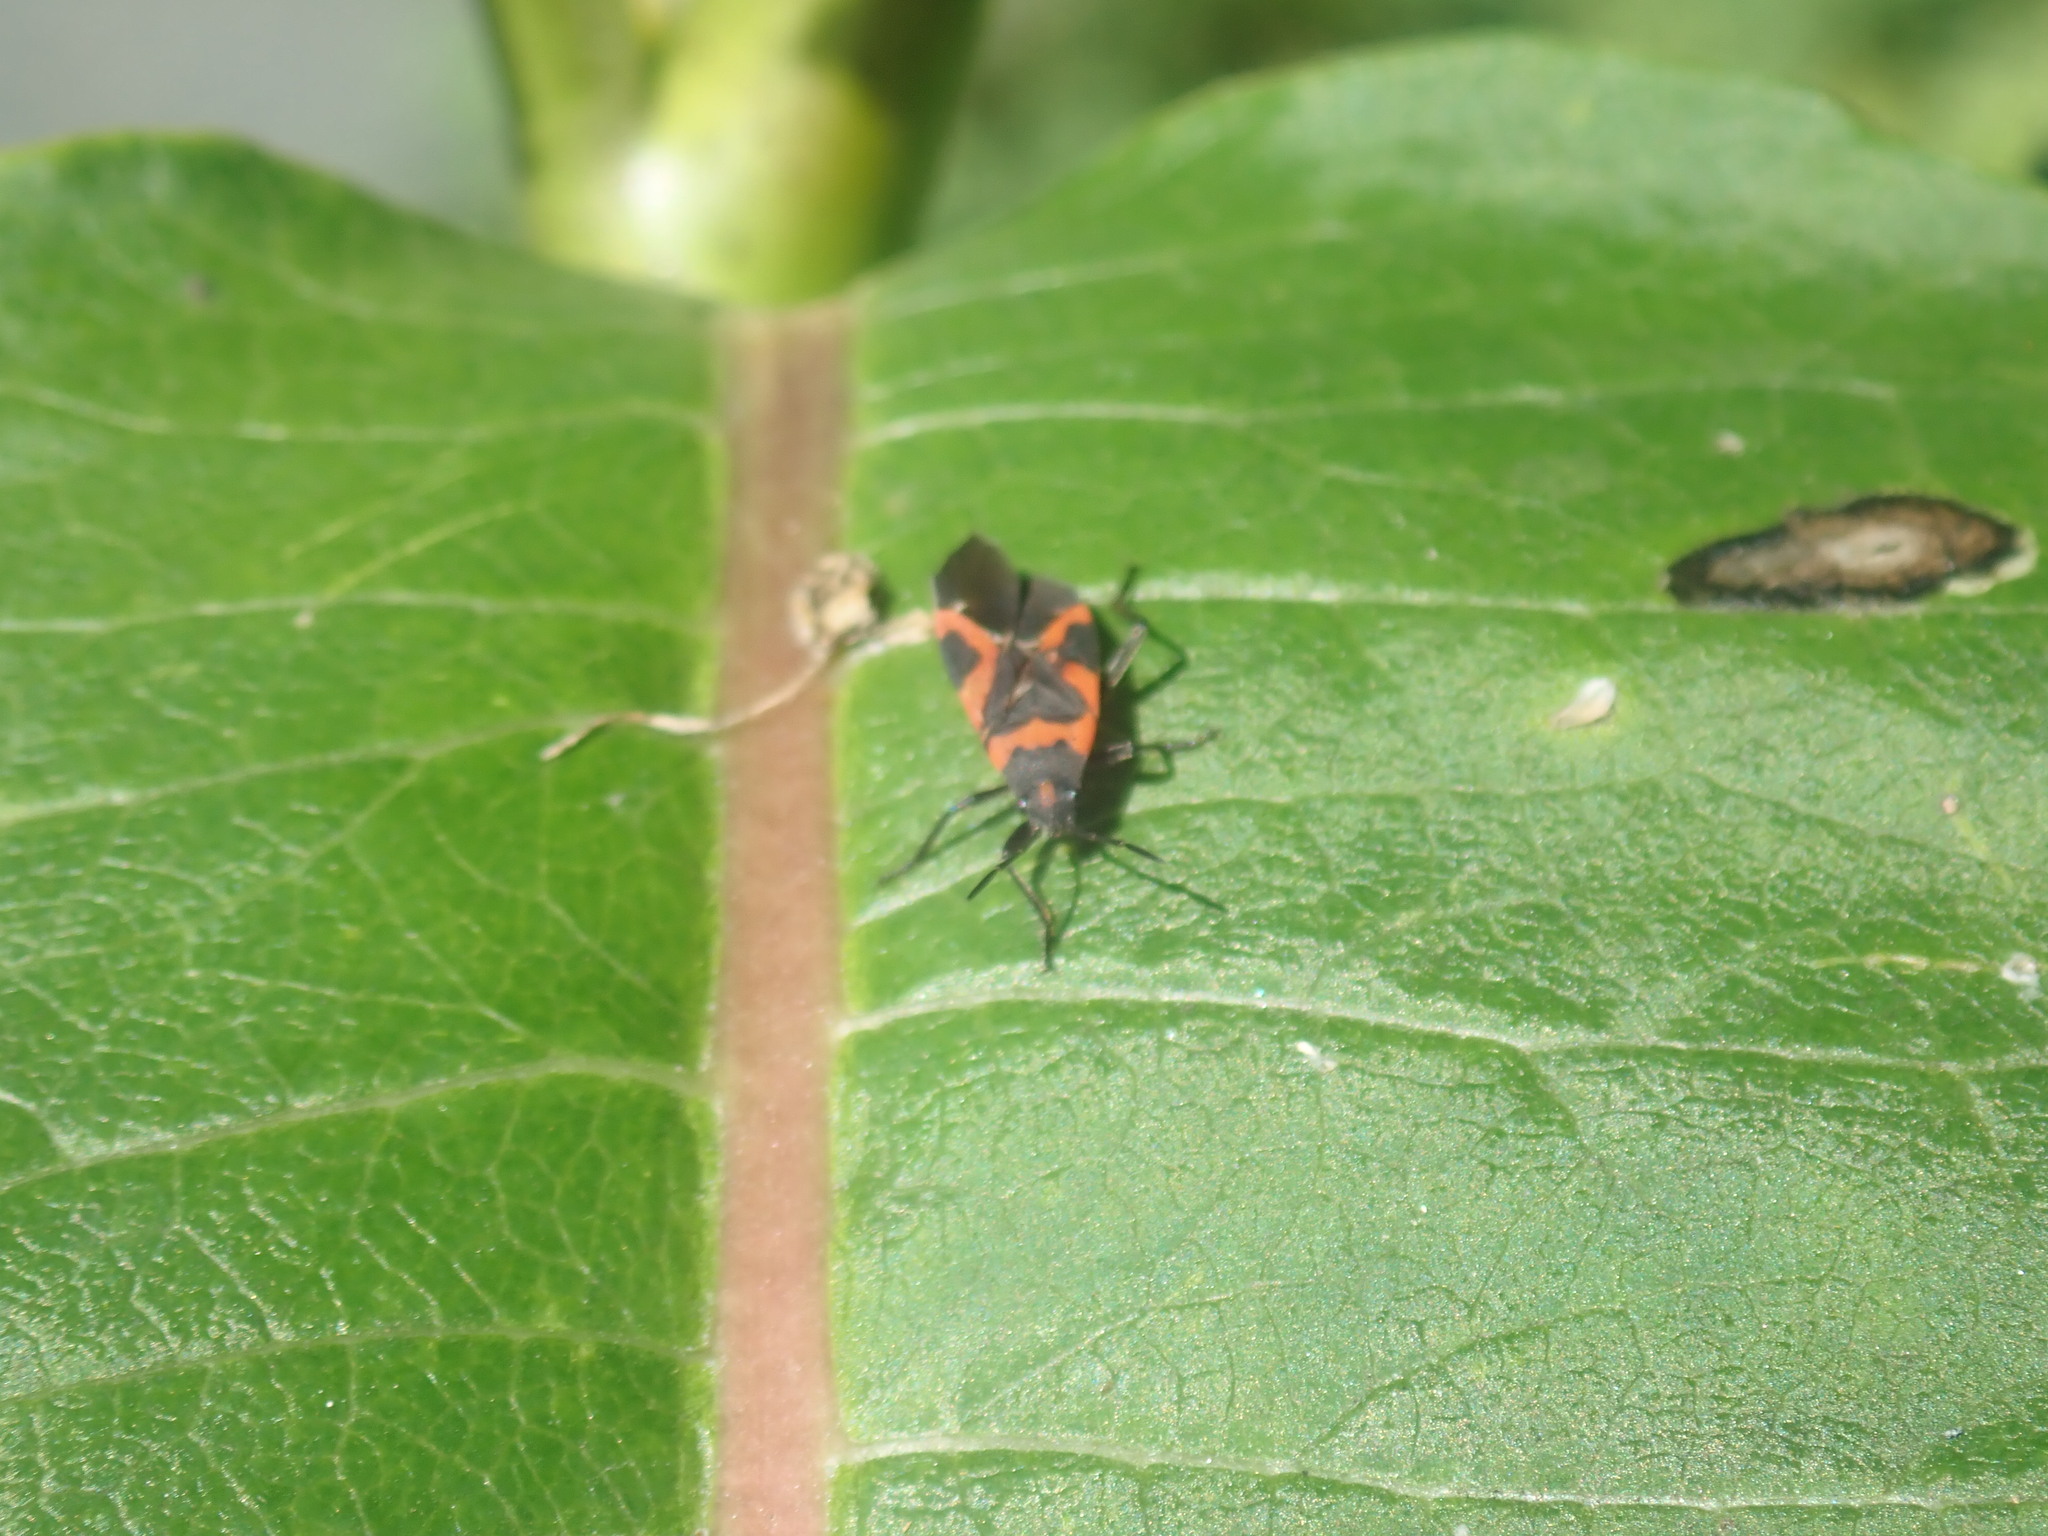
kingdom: Animalia
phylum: Arthropoda
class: Insecta
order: Hemiptera
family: Lygaeidae
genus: Lygaeus
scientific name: Lygaeus kalmii
